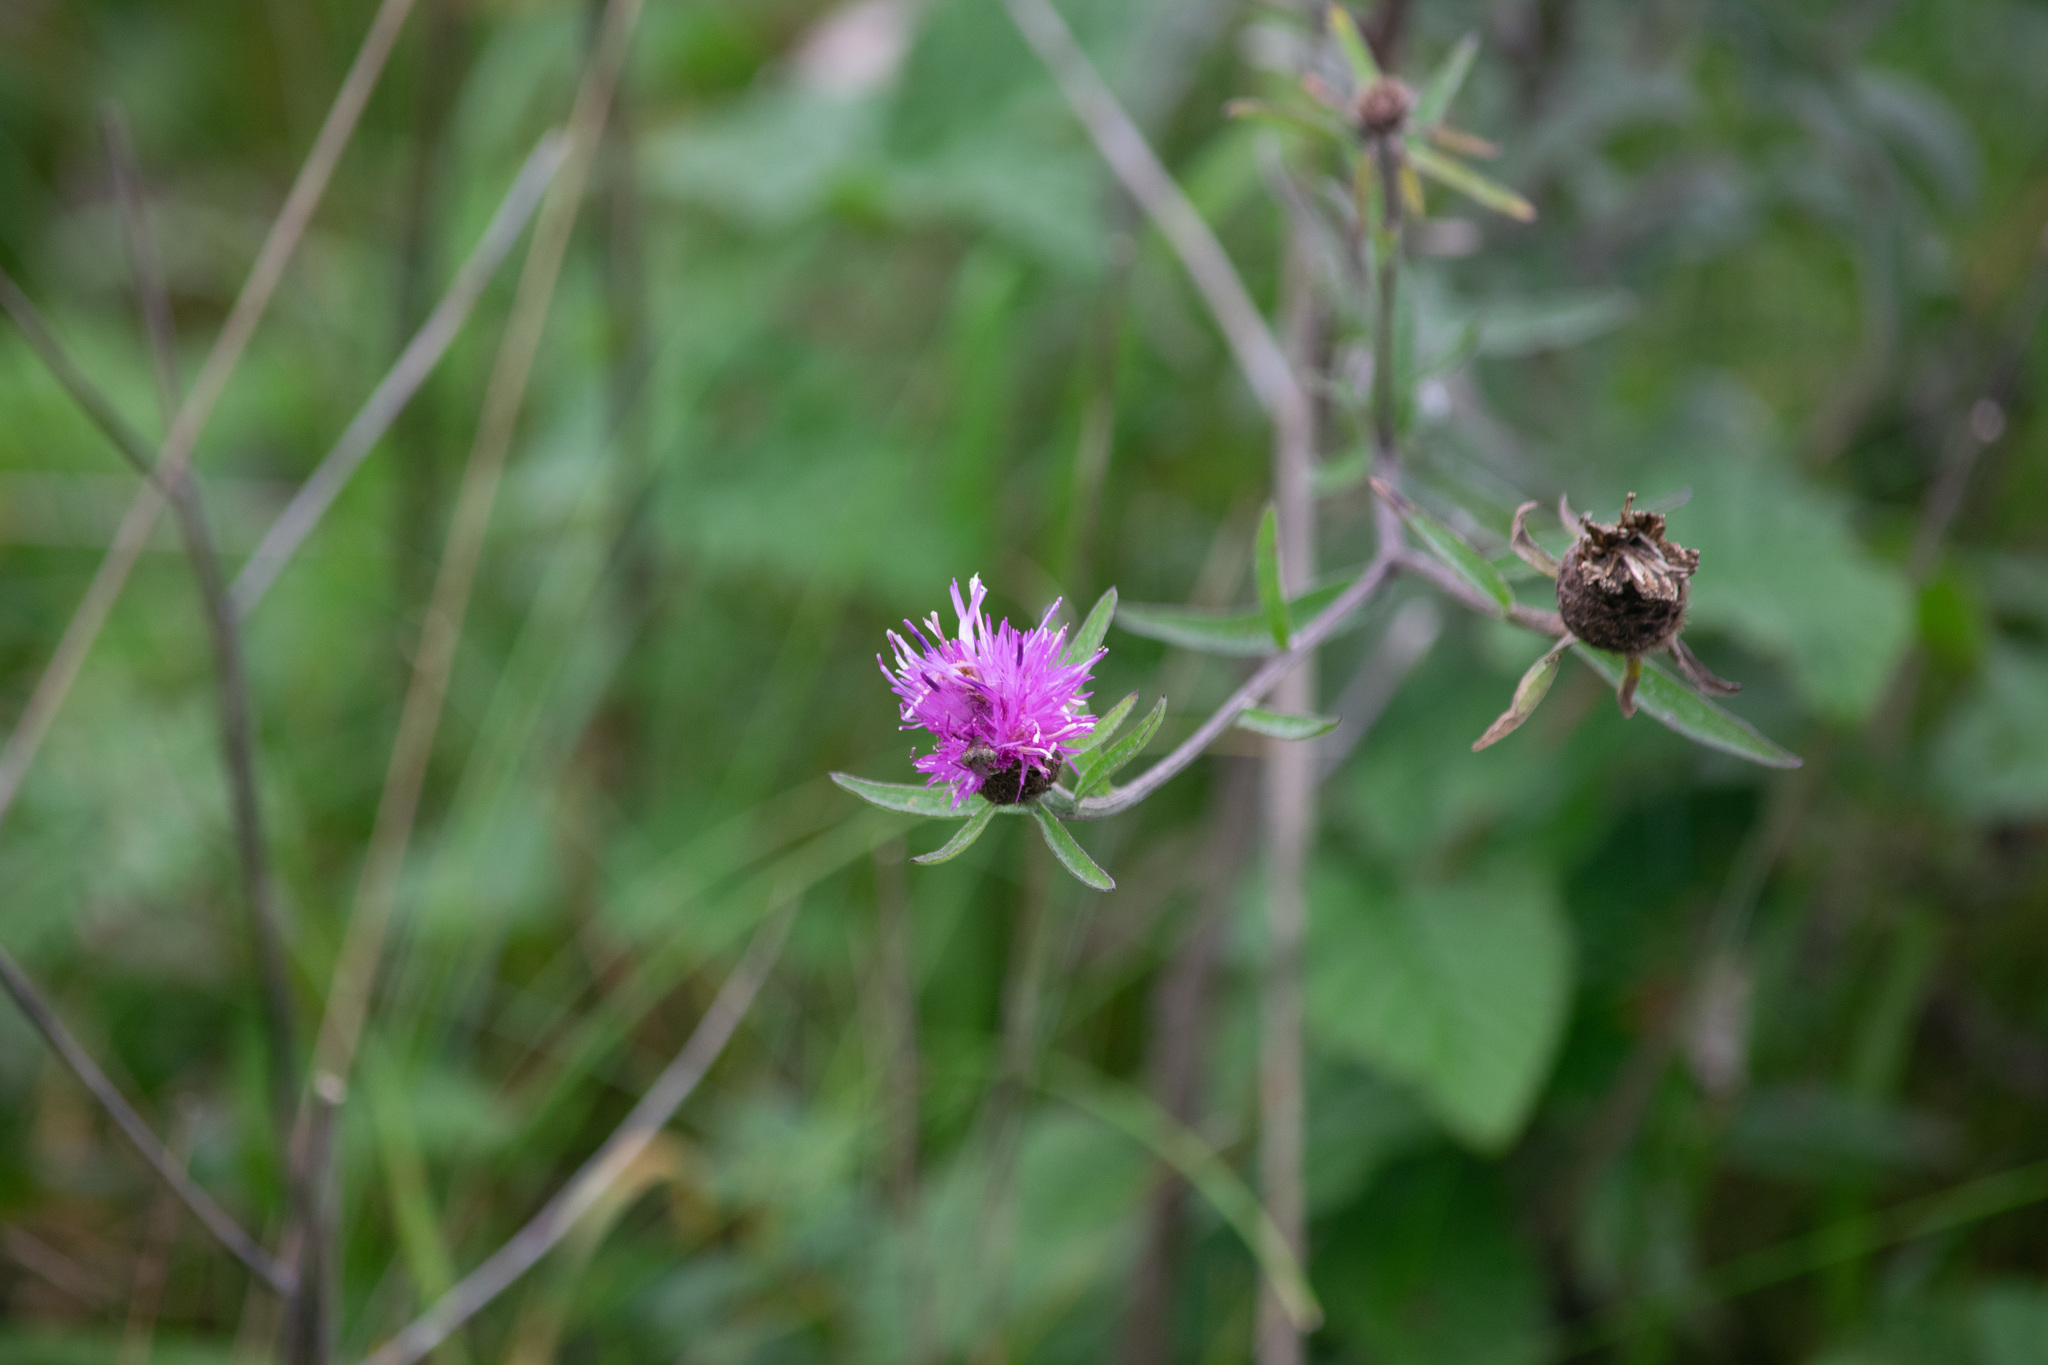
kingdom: Plantae
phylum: Tracheophyta
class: Magnoliopsida
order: Asterales
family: Asteraceae
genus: Centaurea
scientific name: Centaurea nigra
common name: Lesser knapweed
